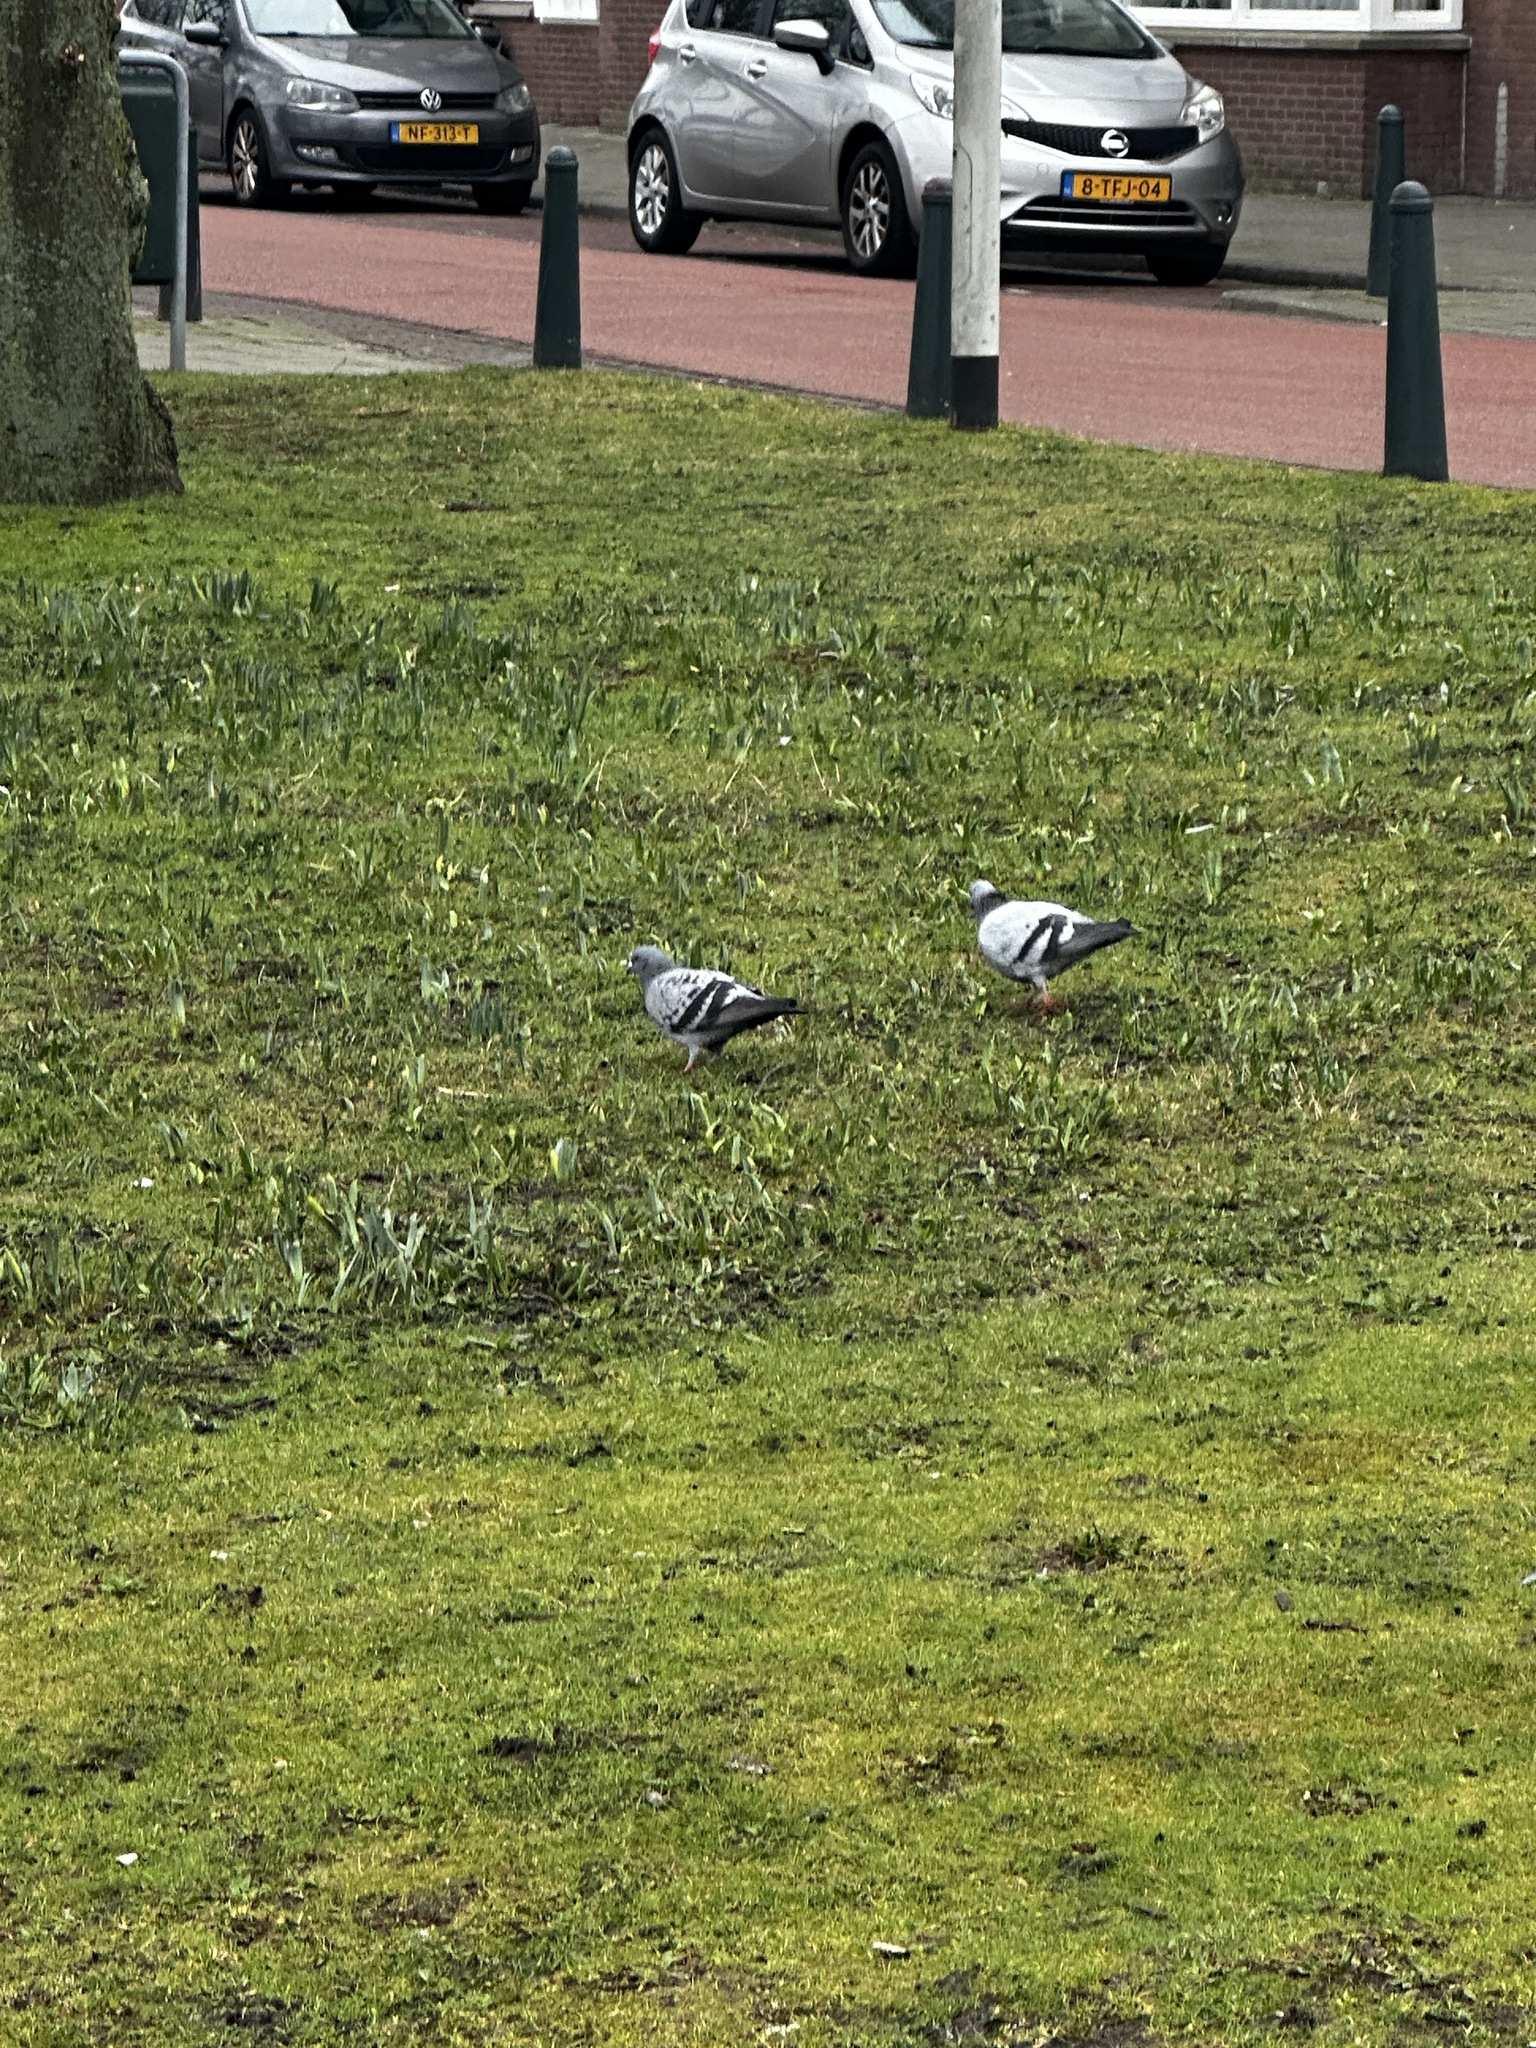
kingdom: Animalia
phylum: Chordata
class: Aves
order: Columbiformes
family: Columbidae
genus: Columba
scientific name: Columba livia
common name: Rock pigeon
